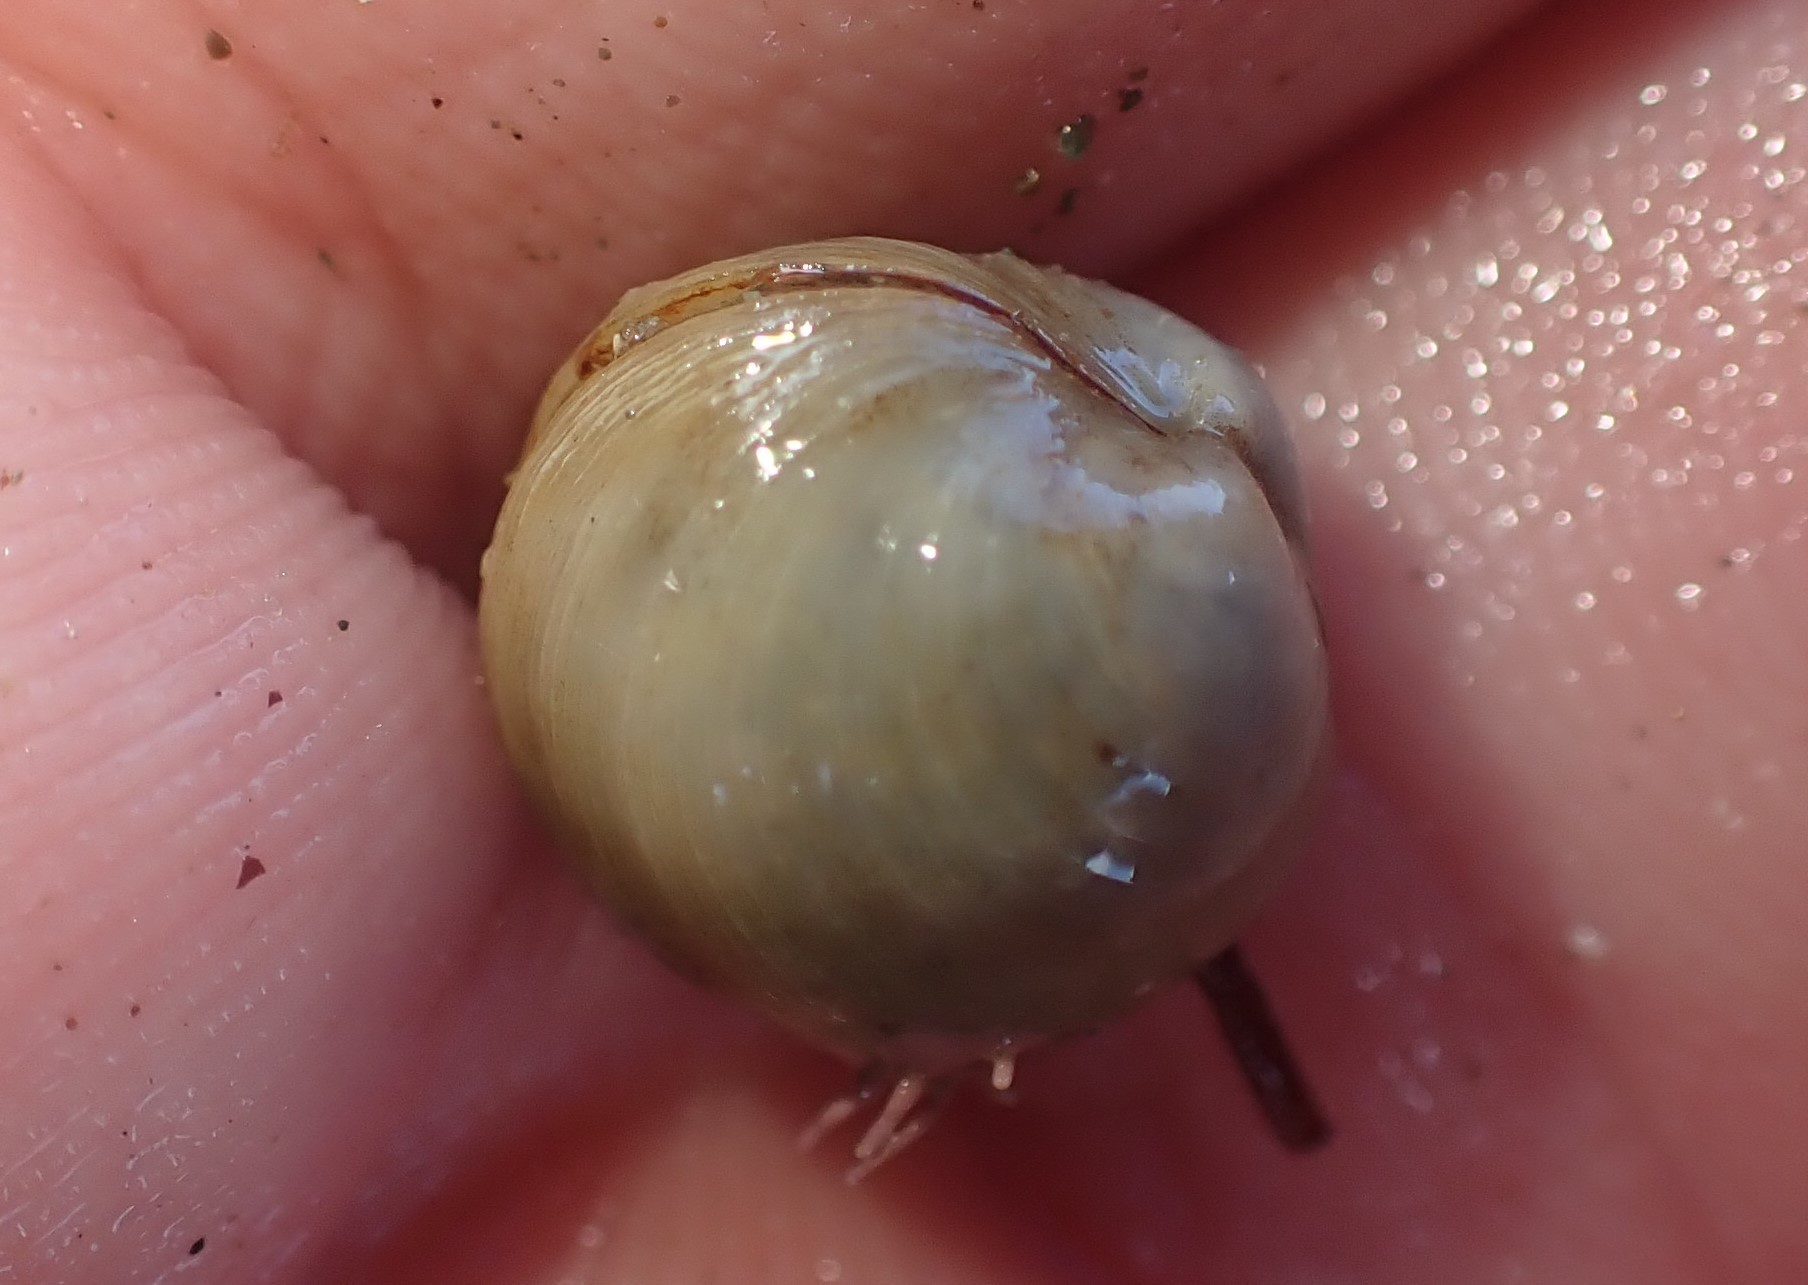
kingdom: Animalia
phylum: Mollusca
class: Bivalvia
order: Venerida
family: Ungulinidae
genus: Zemysina
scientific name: Zemysina striatula
